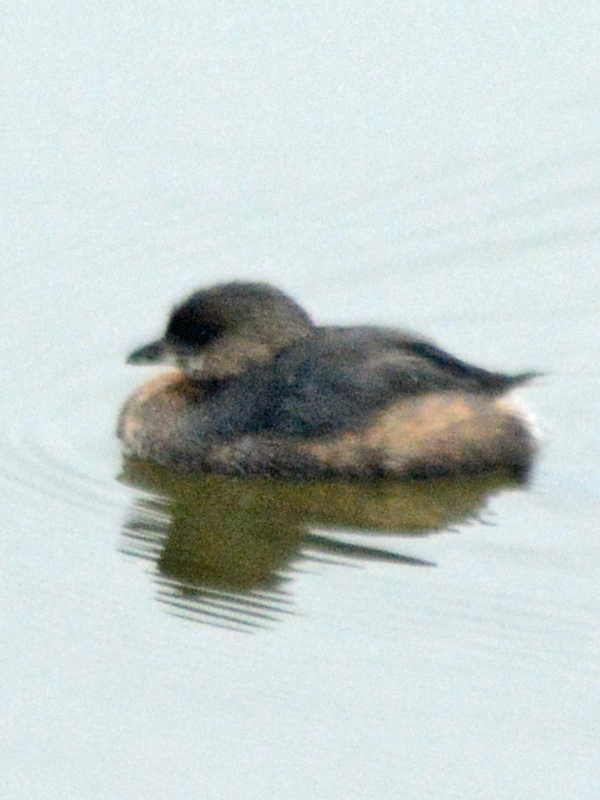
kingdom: Animalia
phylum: Chordata
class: Aves
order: Podicipediformes
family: Podicipedidae
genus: Podilymbus
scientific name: Podilymbus podiceps
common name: Pied-billed grebe
